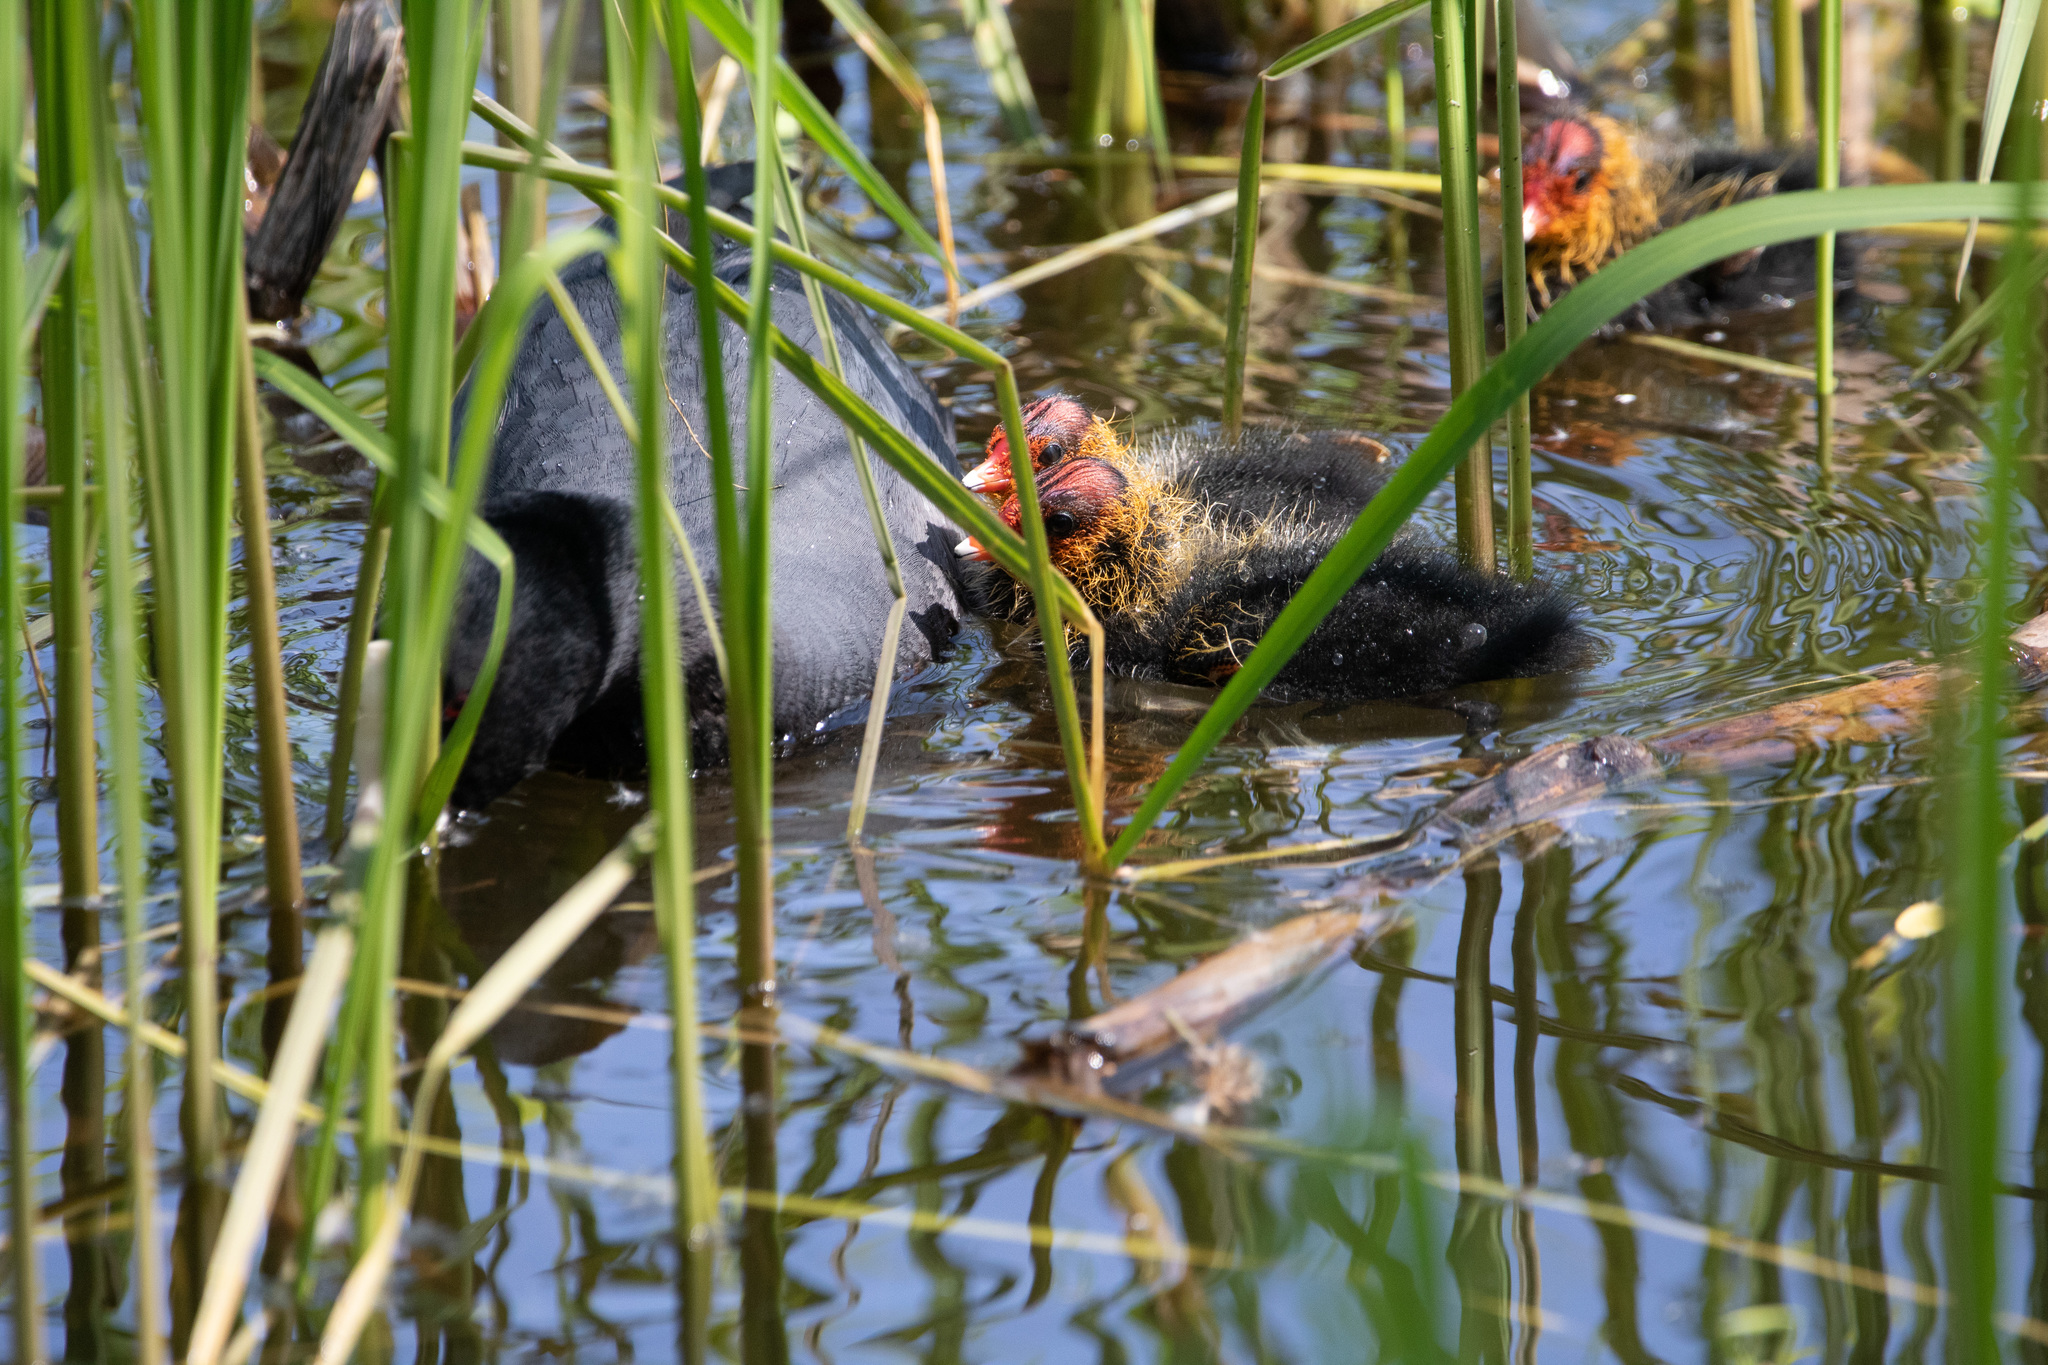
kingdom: Animalia
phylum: Chordata
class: Aves
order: Gruiformes
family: Rallidae
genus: Fulica
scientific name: Fulica atra
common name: Eurasian coot
